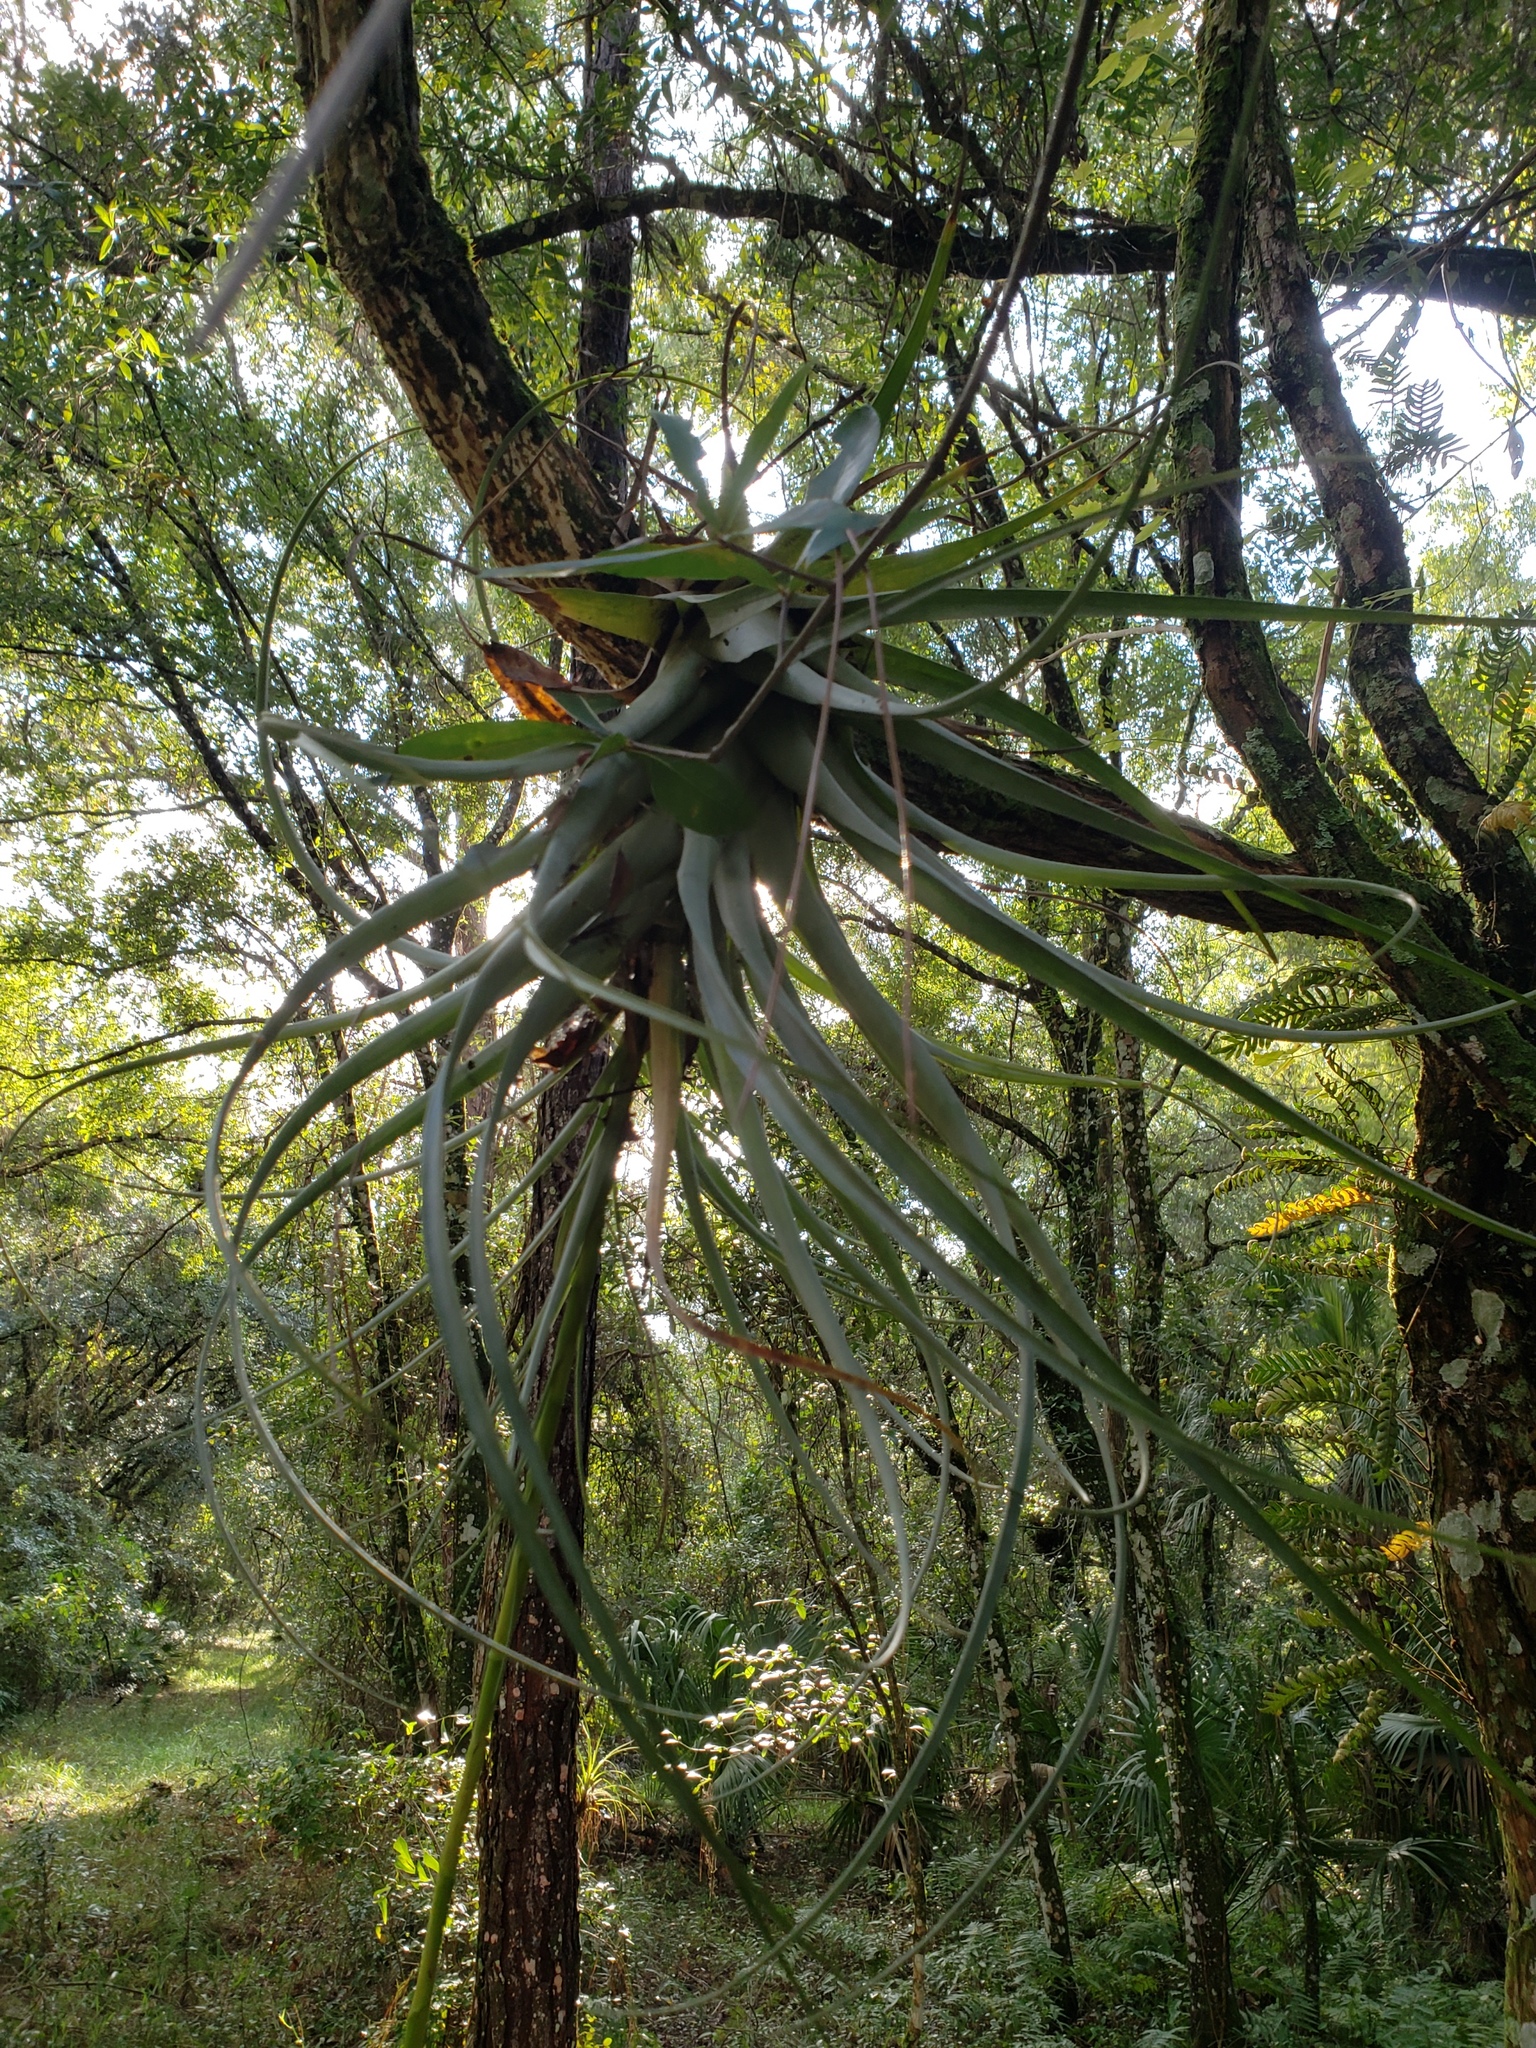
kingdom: Plantae
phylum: Tracheophyta
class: Liliopsida
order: Poales
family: Bromeliaceae
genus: Tillandsia
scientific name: Tillandsia utriculata
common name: Wild pine
